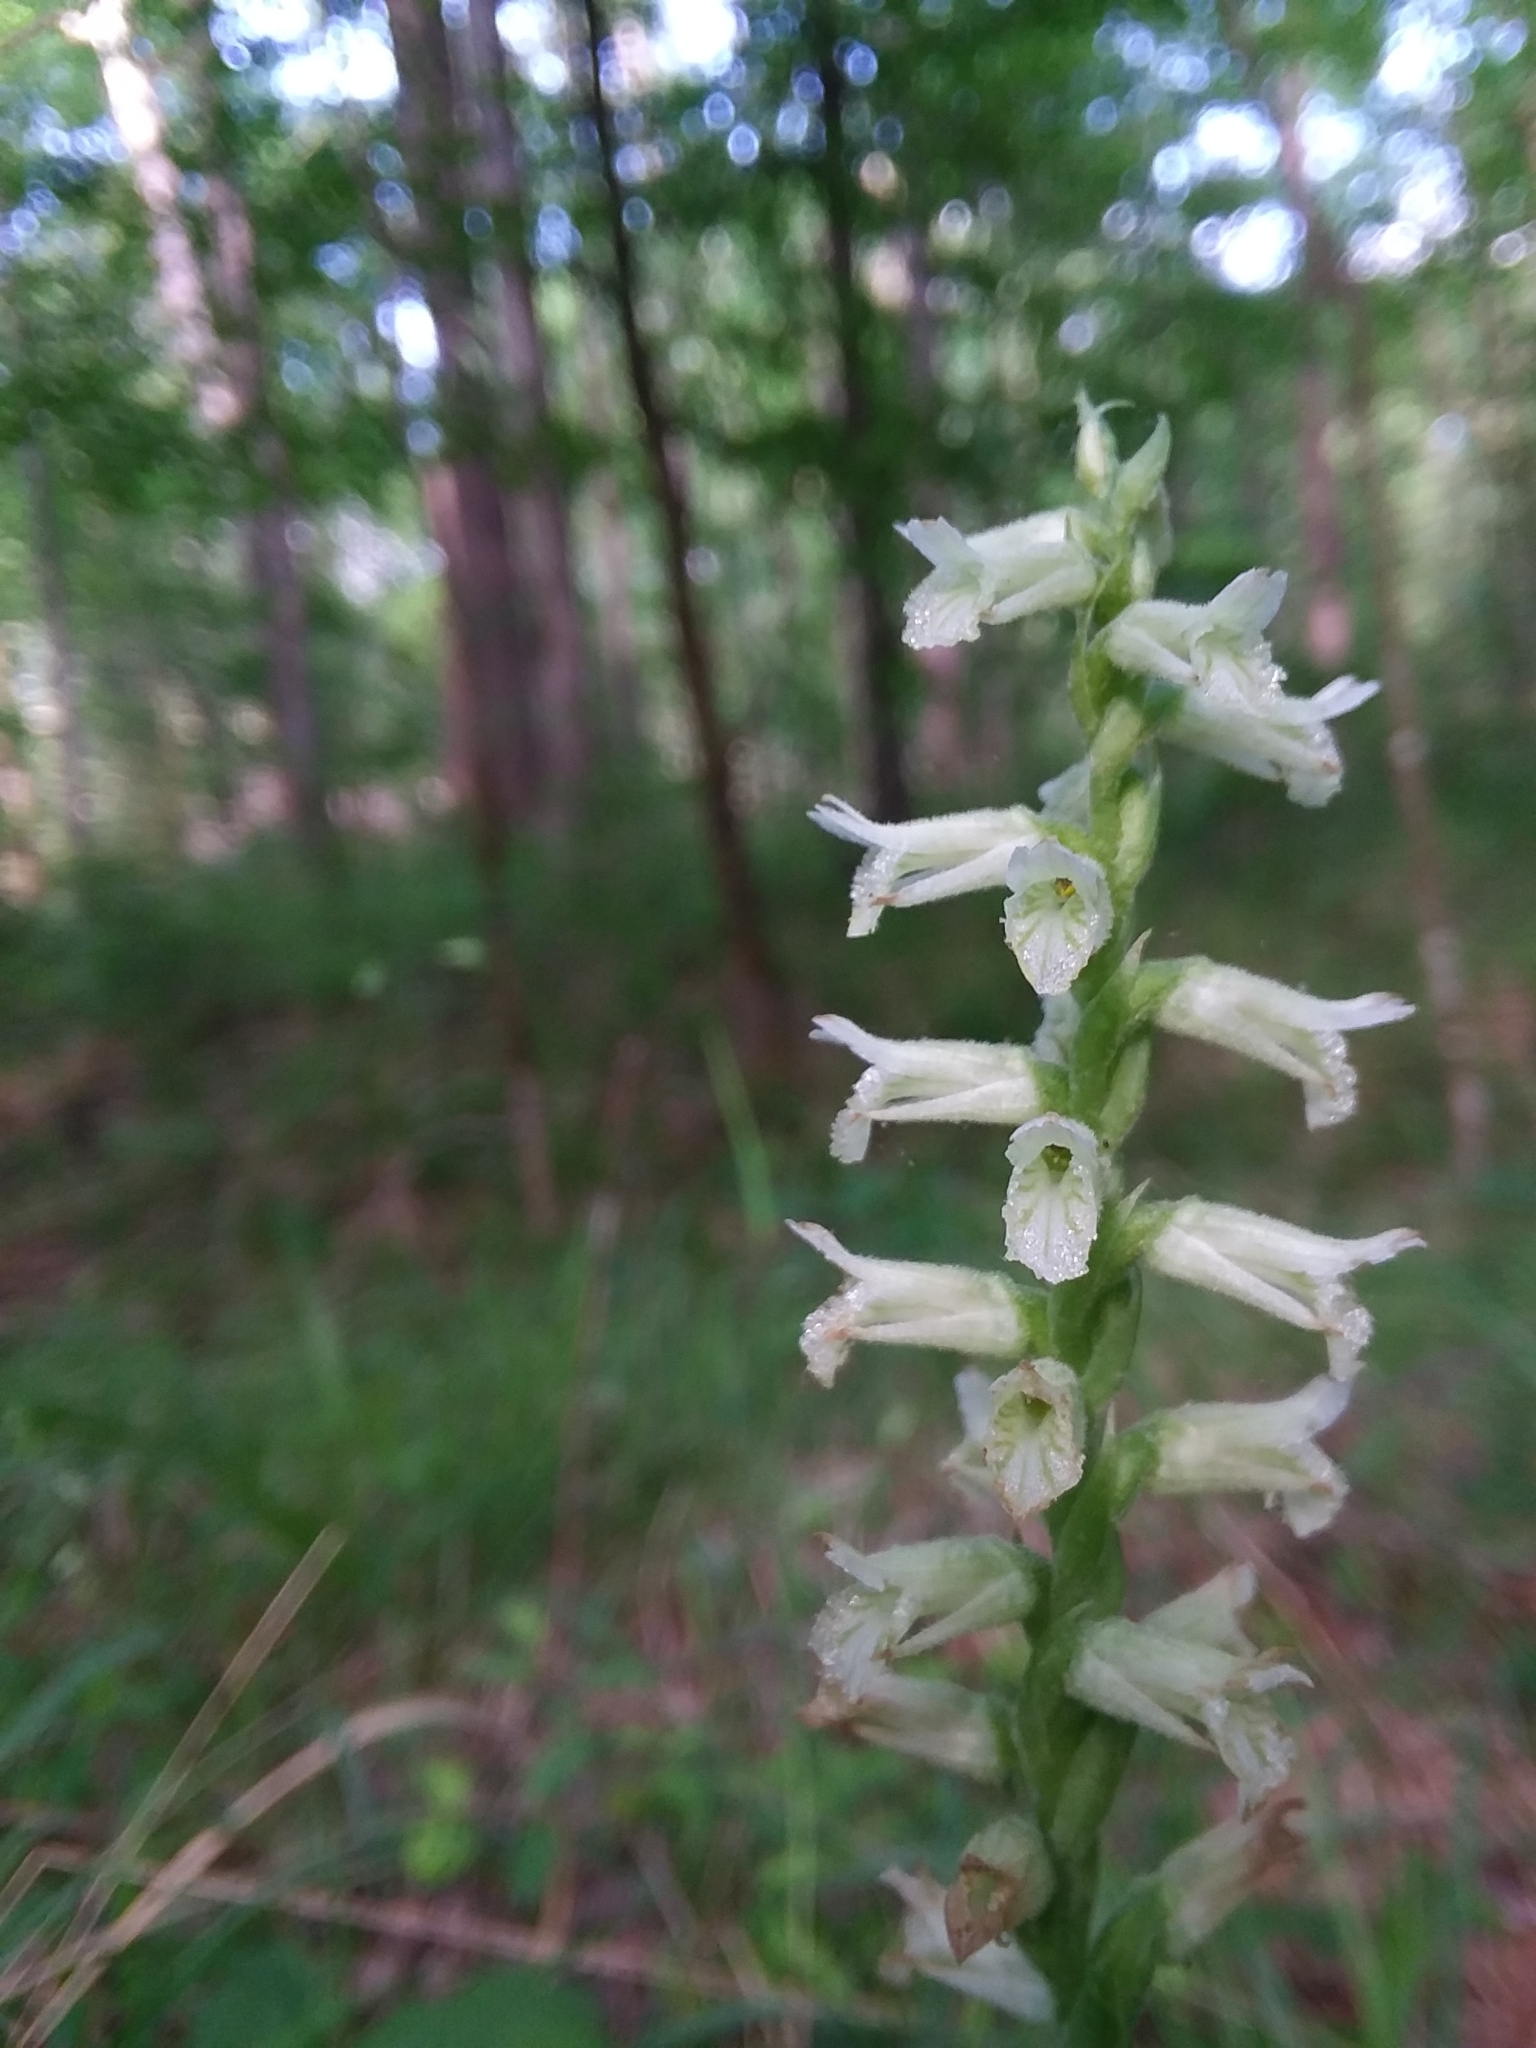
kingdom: Plantae
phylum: Tracheophyta
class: Liliopsida
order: Asparagales
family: Orchidaceae
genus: Spiranthes
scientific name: Spiranthes sylvatica
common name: Woodland lady's tresses
